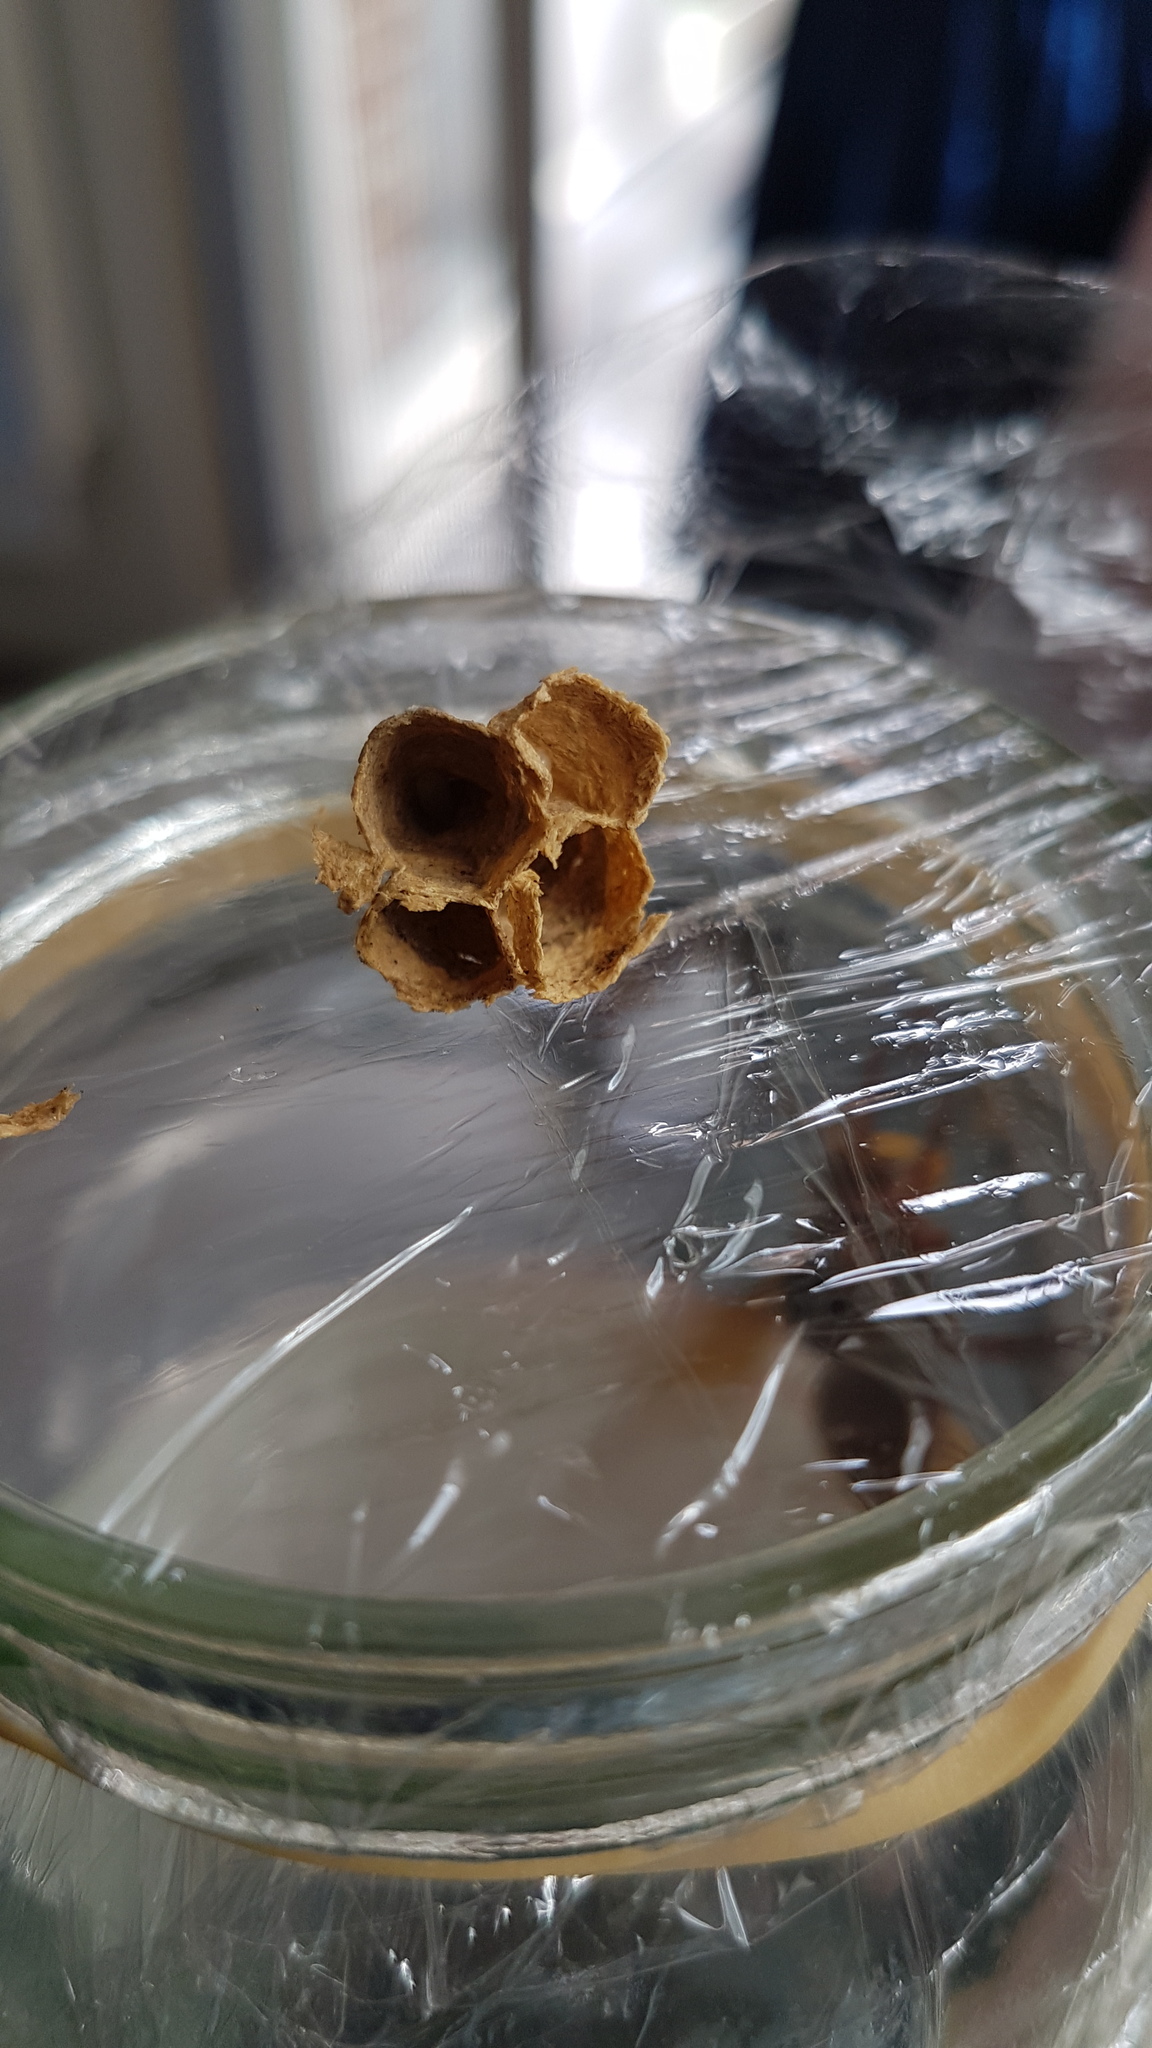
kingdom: Animalia
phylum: Arthropoda
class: Insecta
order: Hymenoptera
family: Vespidae
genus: Vespa
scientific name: Vespa crabro
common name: Hornet
